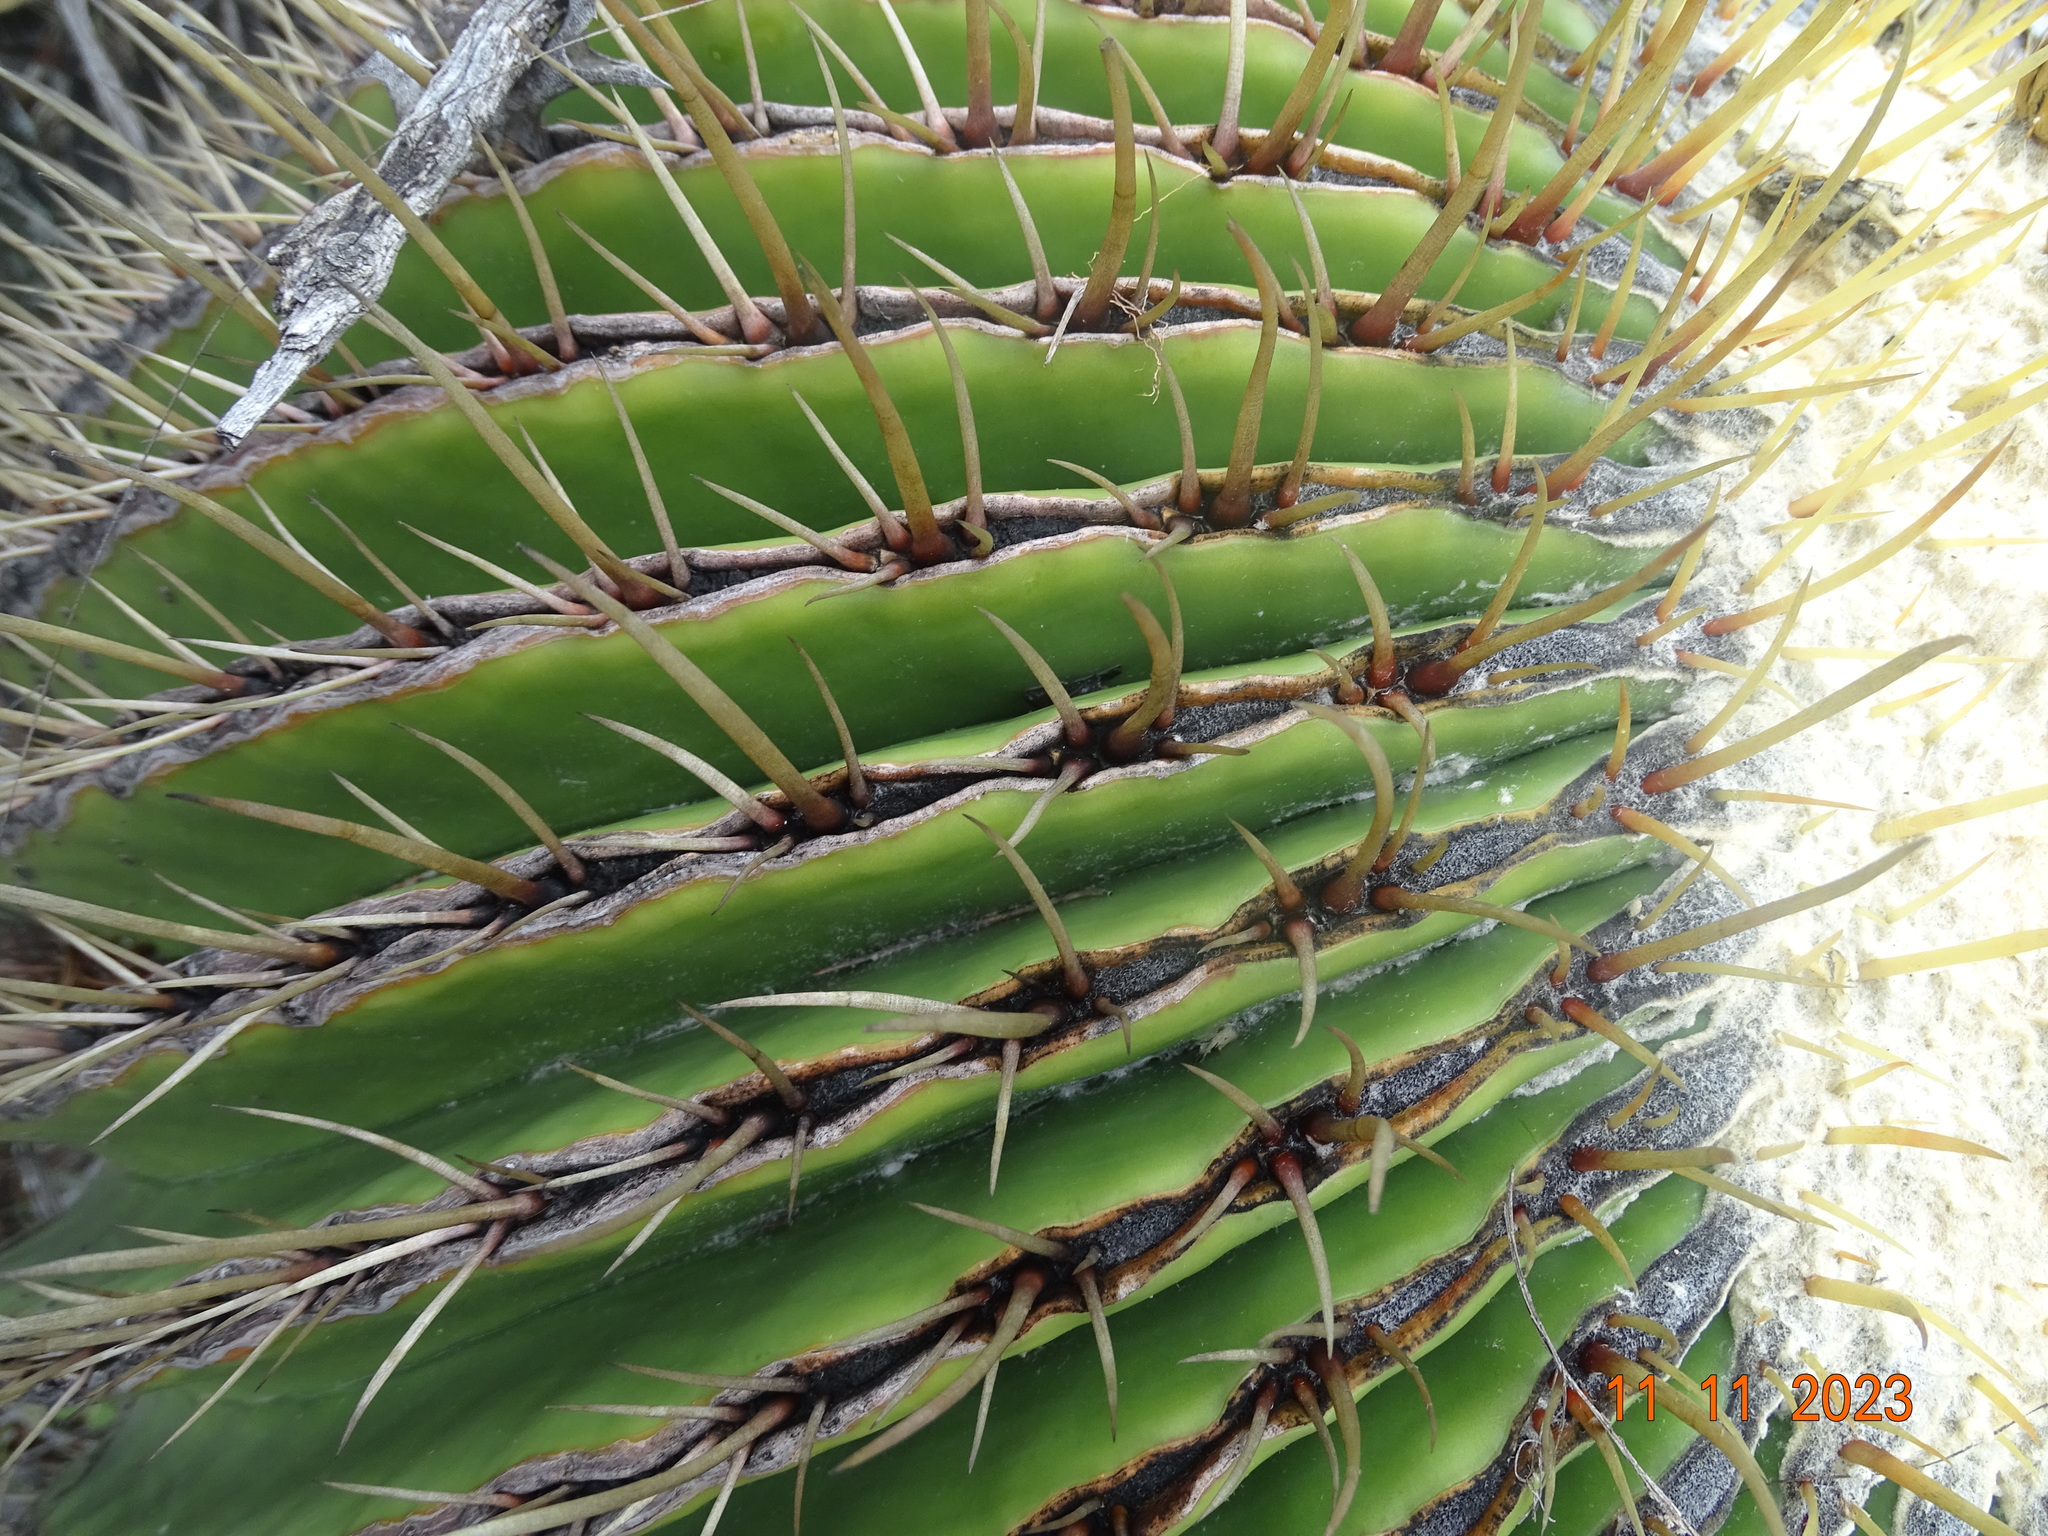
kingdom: Plantae
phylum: Tracheophyta
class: Magnoliopsida
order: Caryophyllales
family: Cactaceae
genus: Echinocactus
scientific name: Echinocactus platyacanthus
